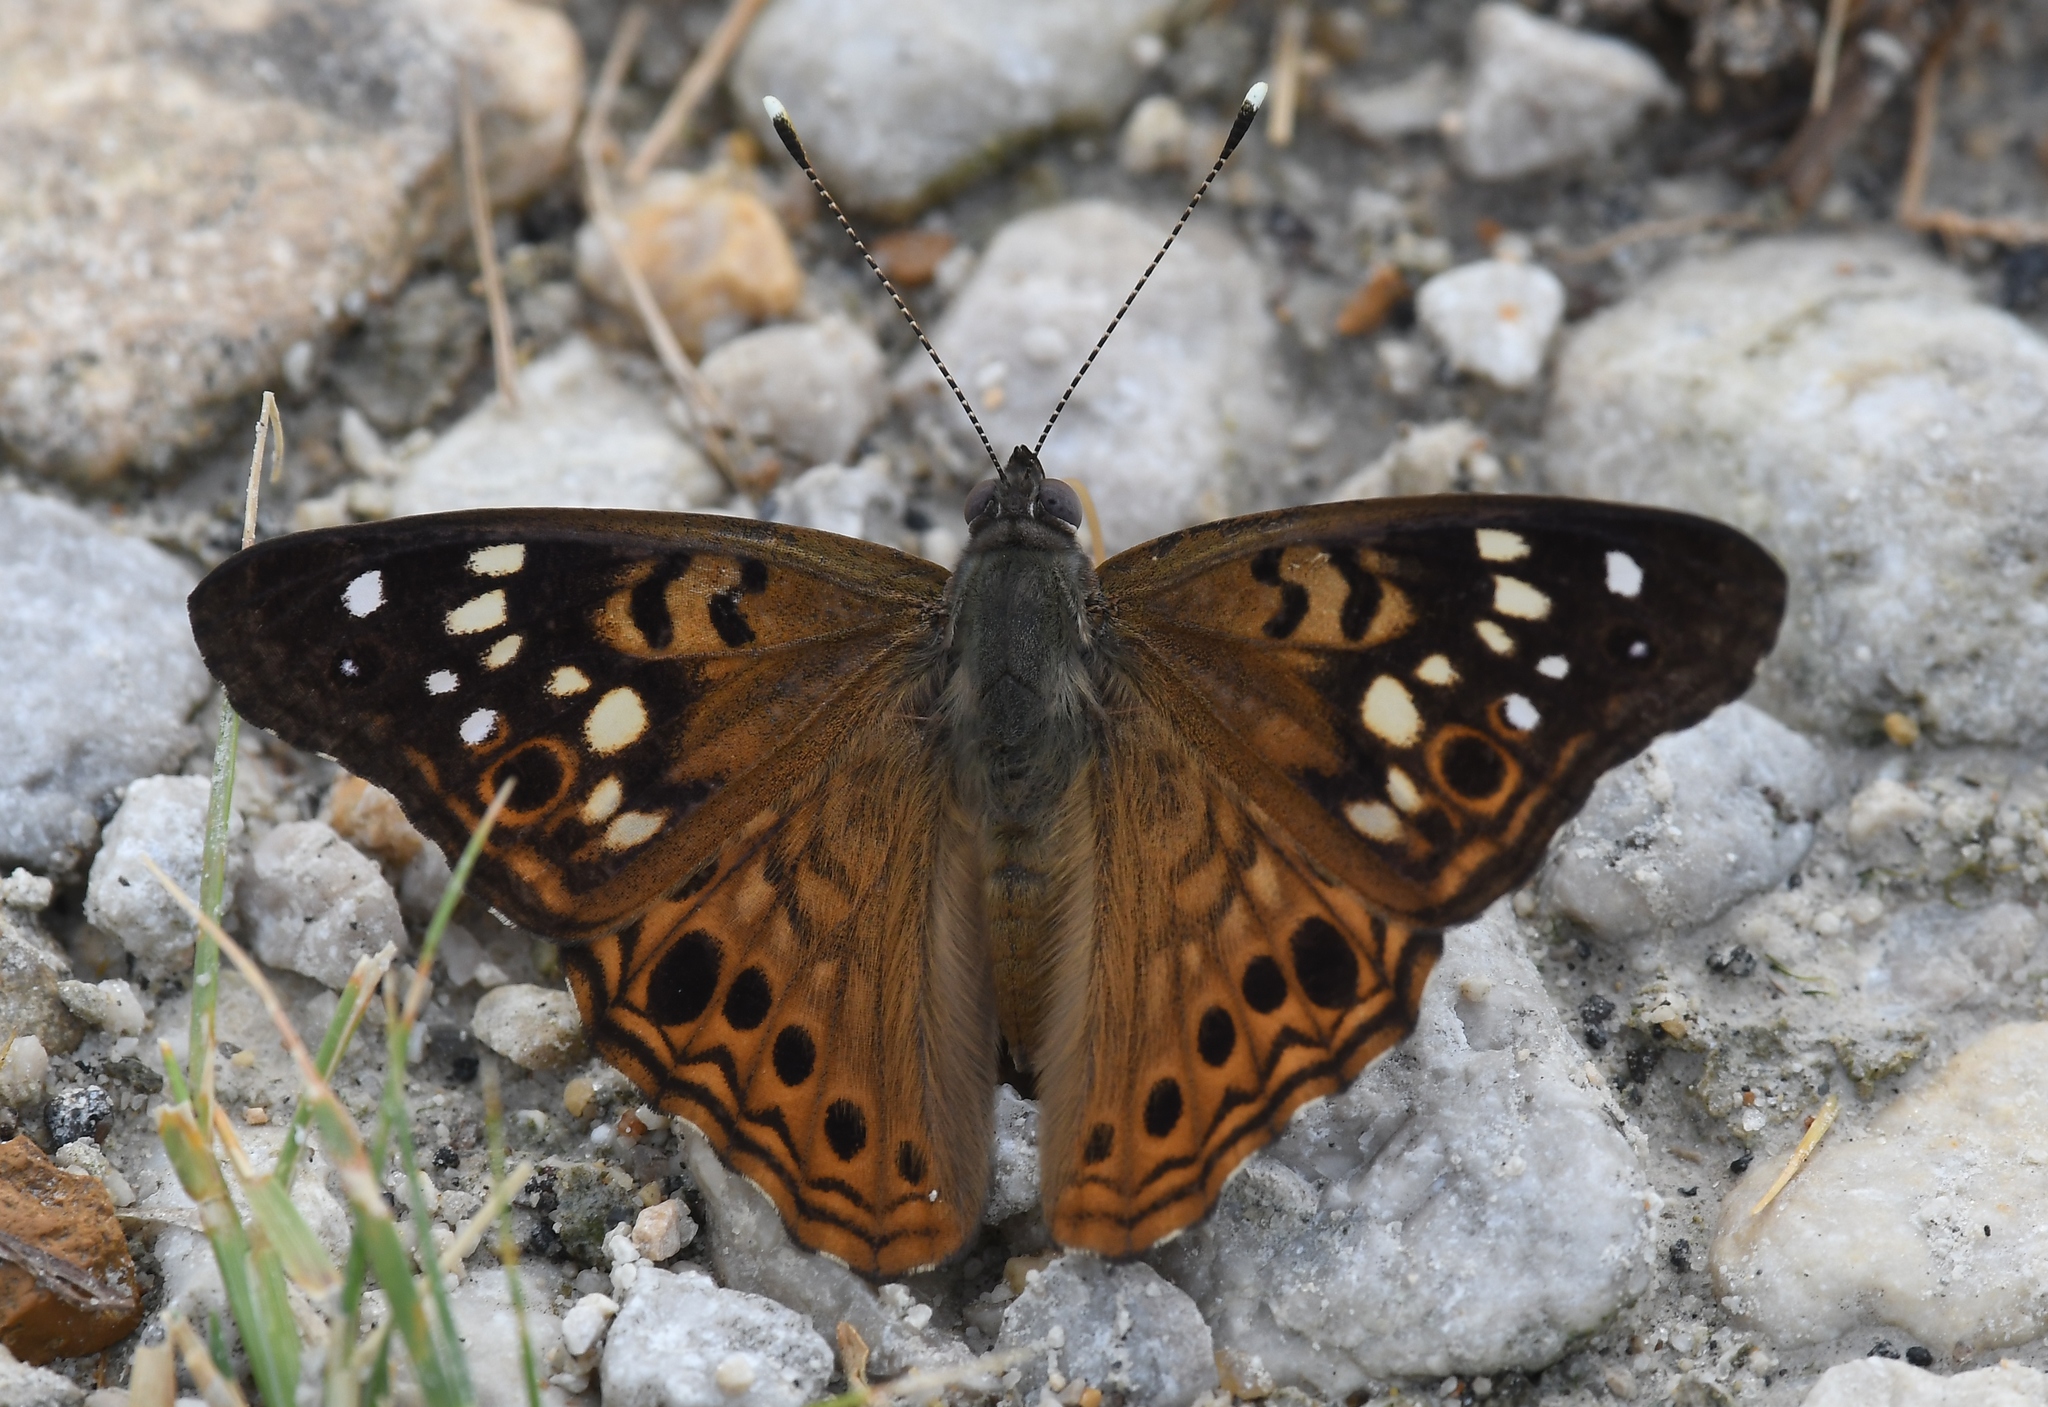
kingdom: Animalia
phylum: Arthropoda
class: Insecta
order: Lepidoptera
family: Nymphalidae
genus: Asterocampa
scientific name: Asterocampa celtis
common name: Hackberry emperor
